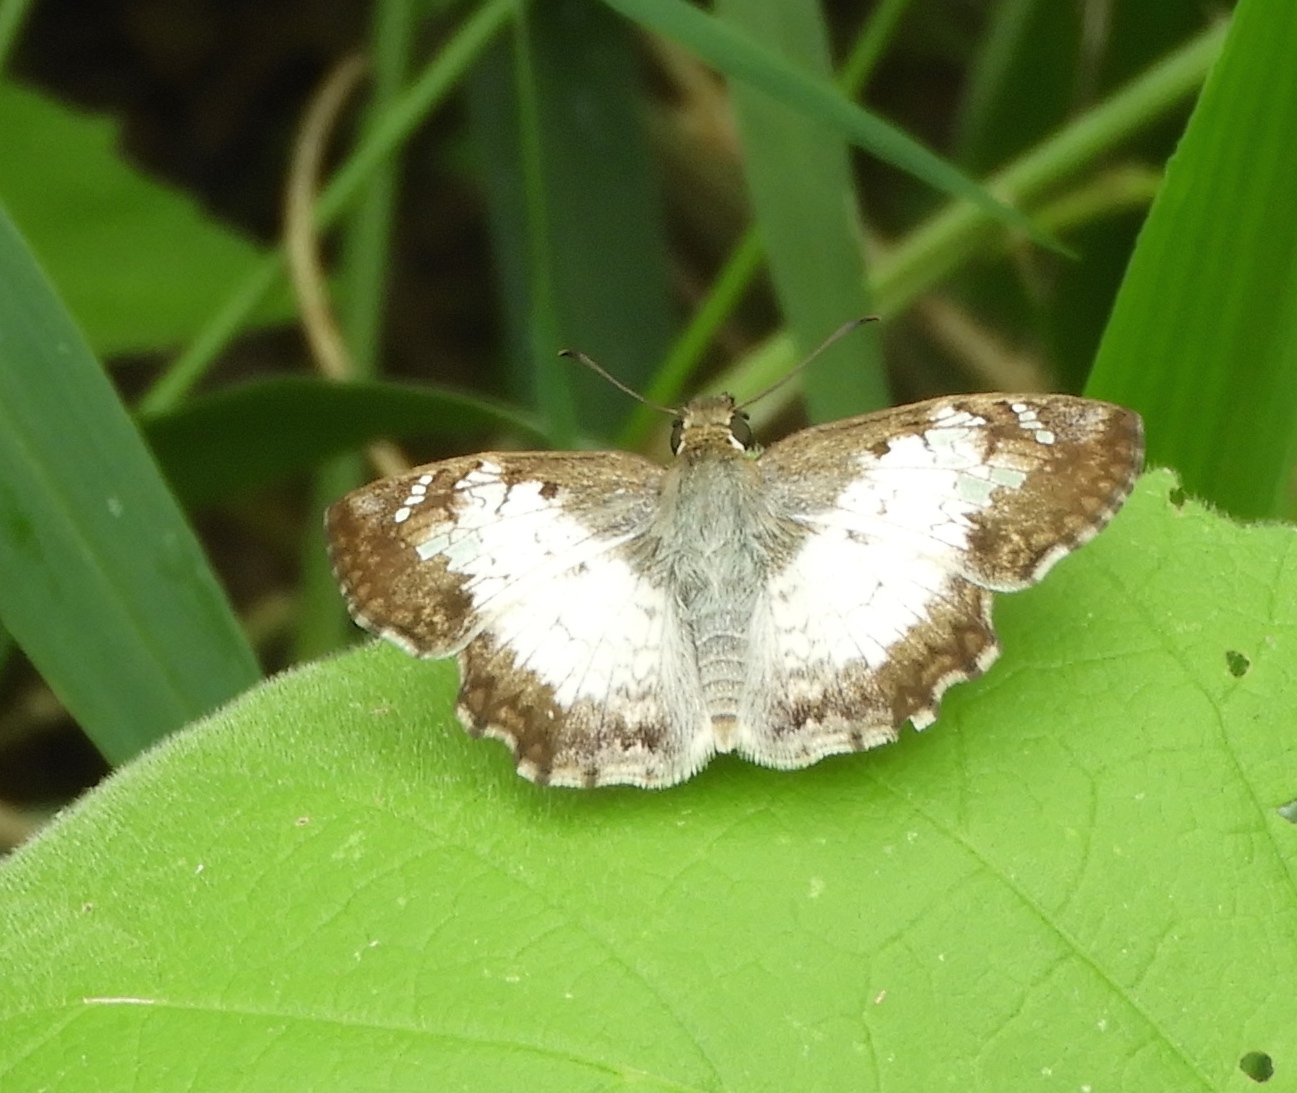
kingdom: Animalia
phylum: Arthropoda
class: Insecta
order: Lepidoptera
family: Hesperiidae
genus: Antigonus
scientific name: Antigonus emorsa
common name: White spurwing
